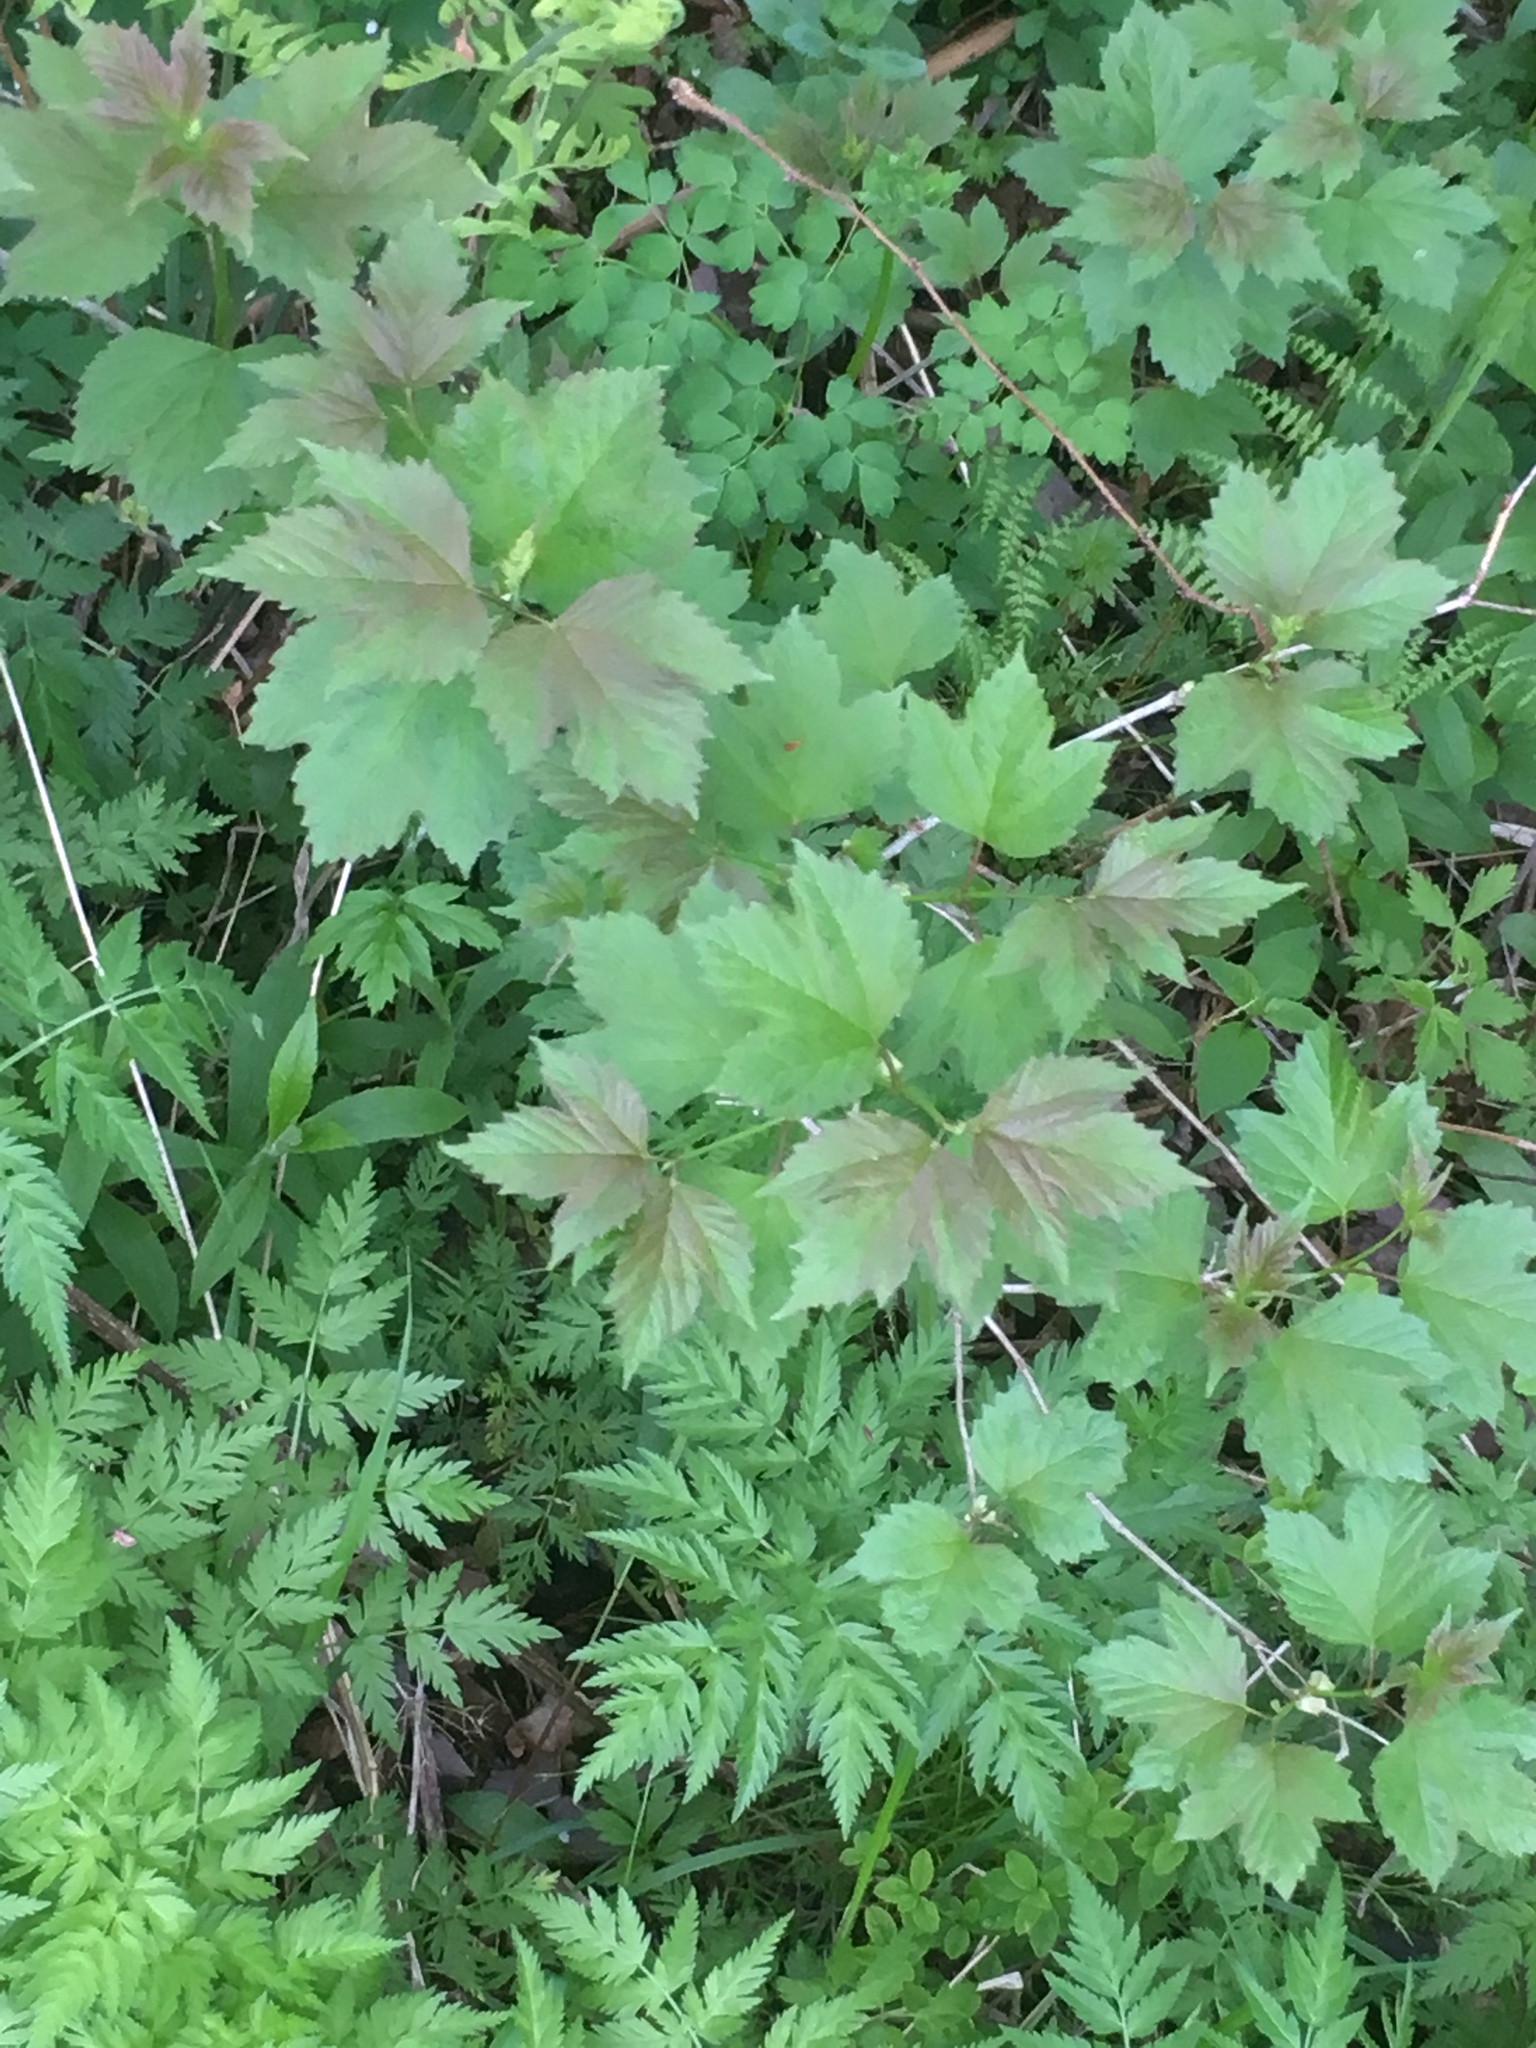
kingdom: Plantae
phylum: Tracheophyta
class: Magnoliopsida
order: Dipsacales
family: Viburnaceae
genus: Viburnum
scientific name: Viburnum opulus
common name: Guelder-rose
